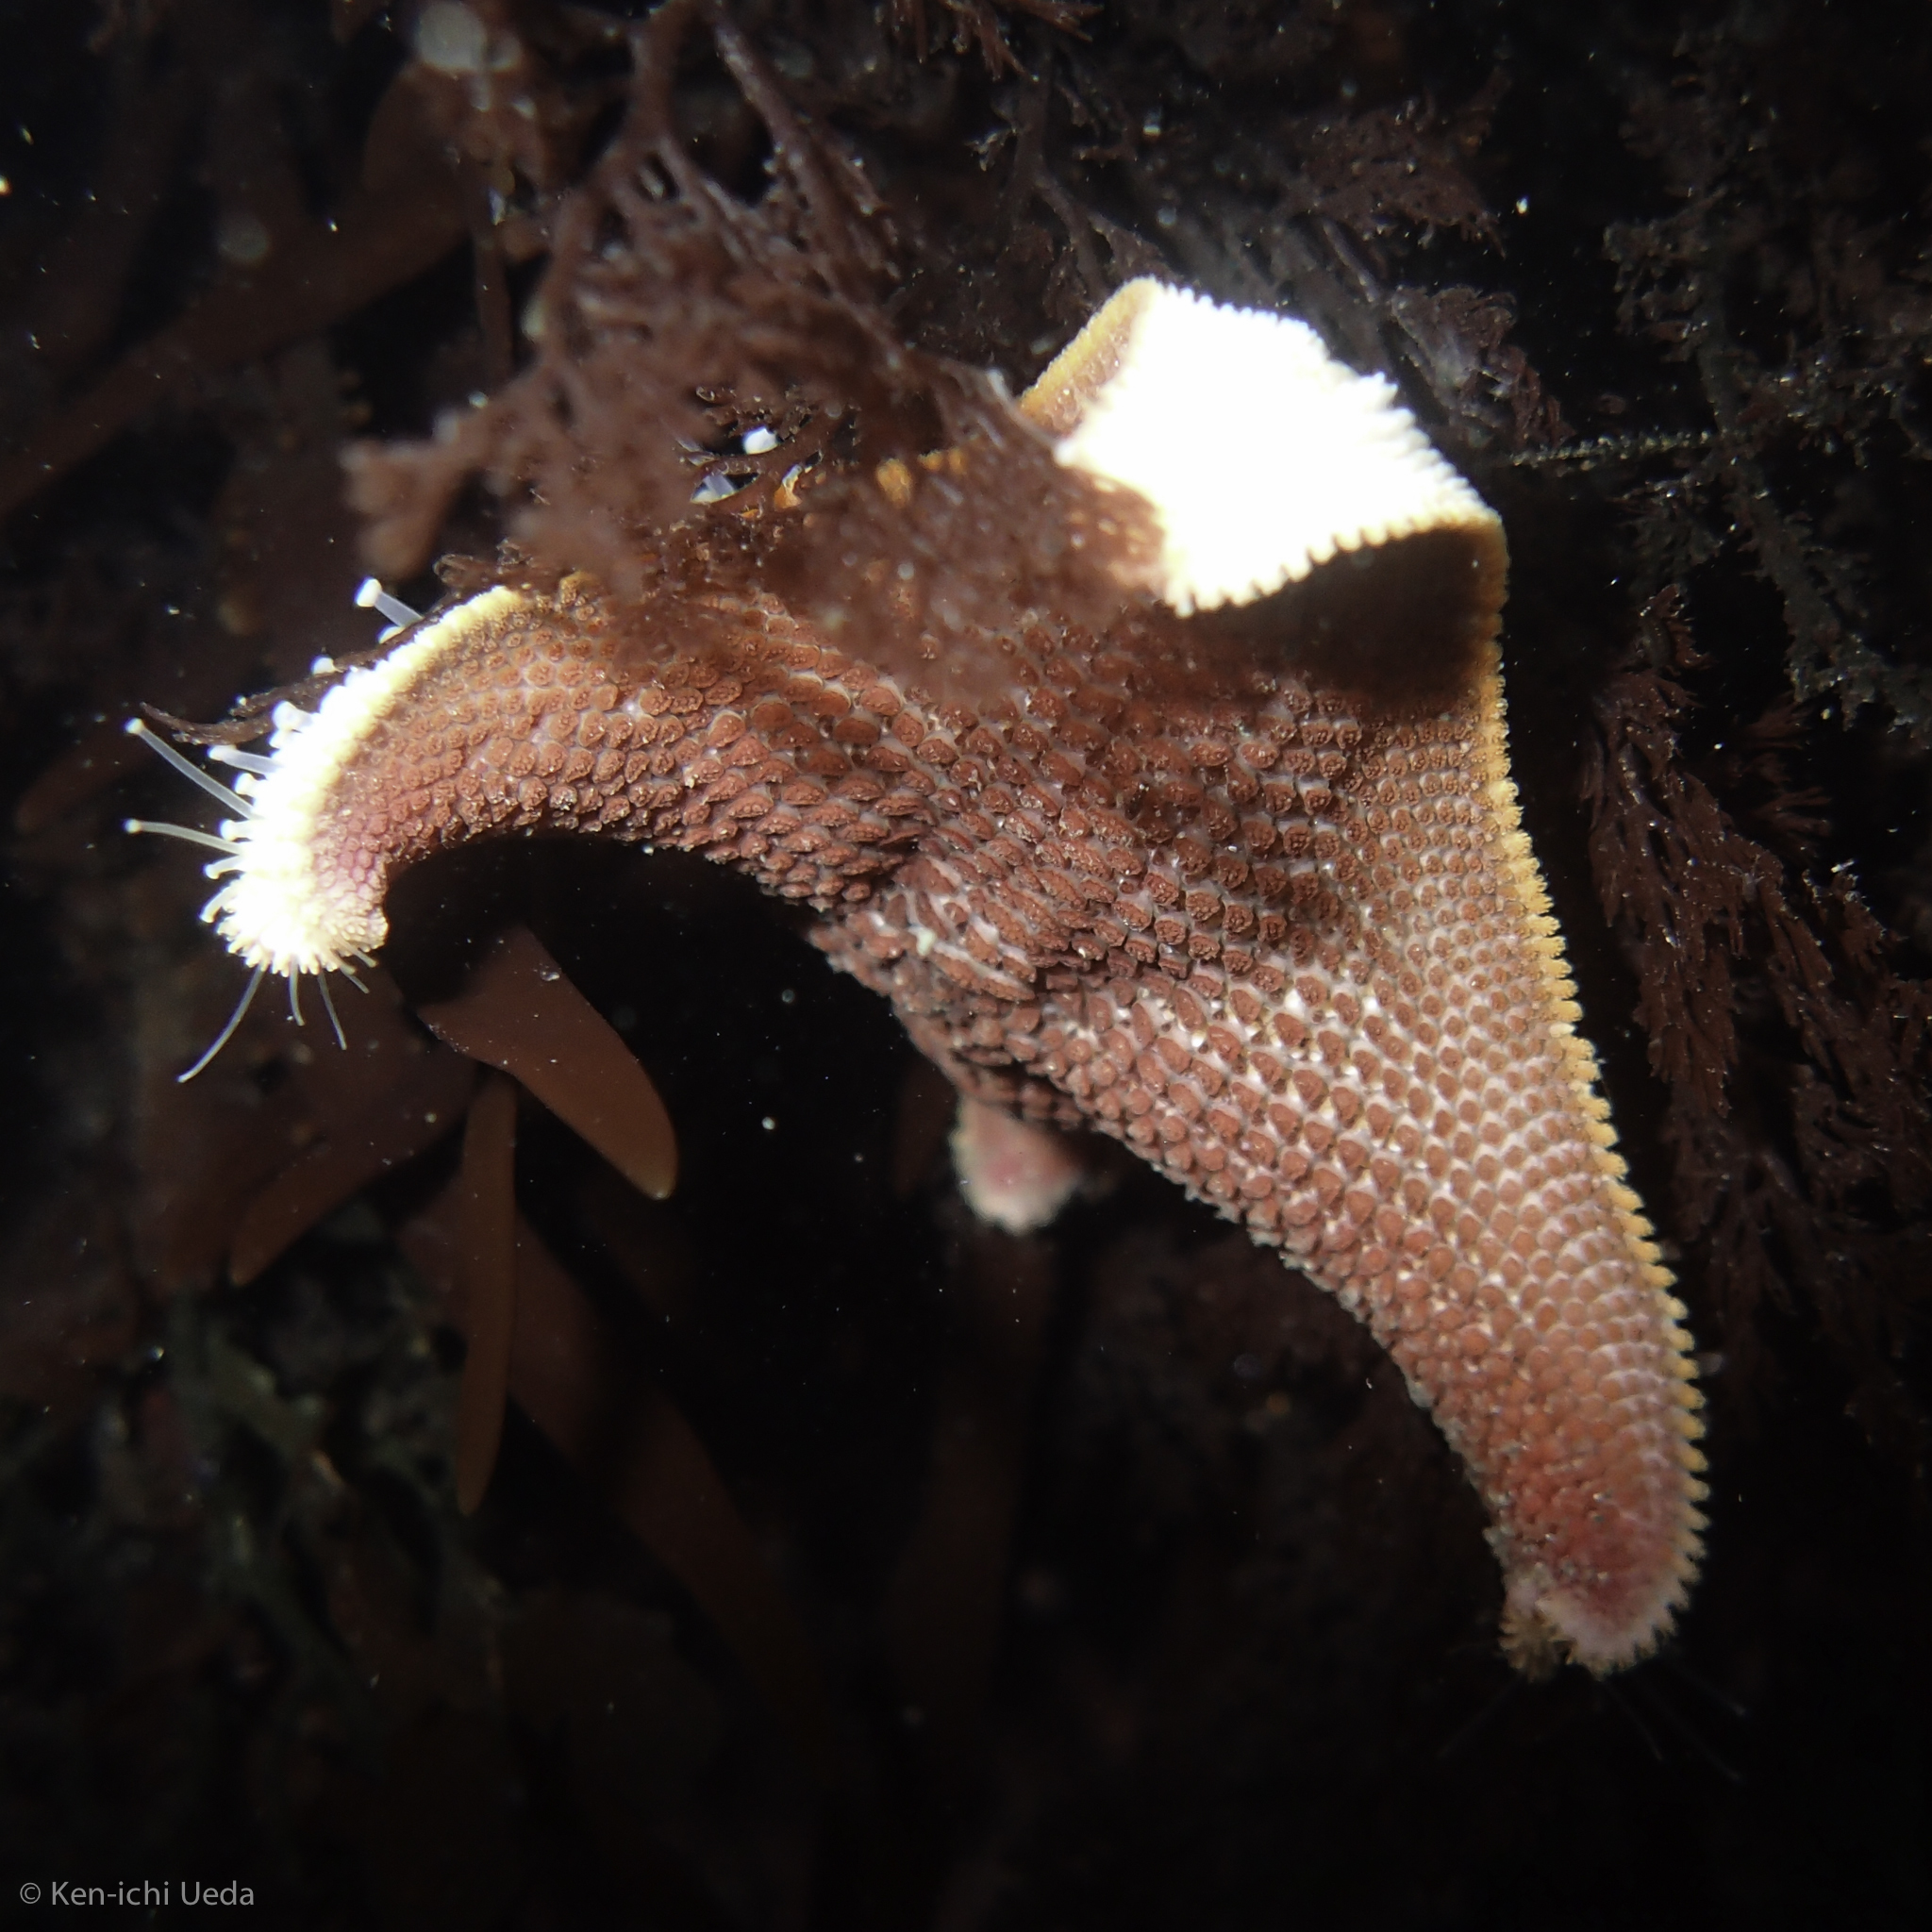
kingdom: Animalia
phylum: Echinodermata
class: Asteroidea
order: Valvatida
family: Asterinidae
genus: Patiria
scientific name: Patiria miniata
